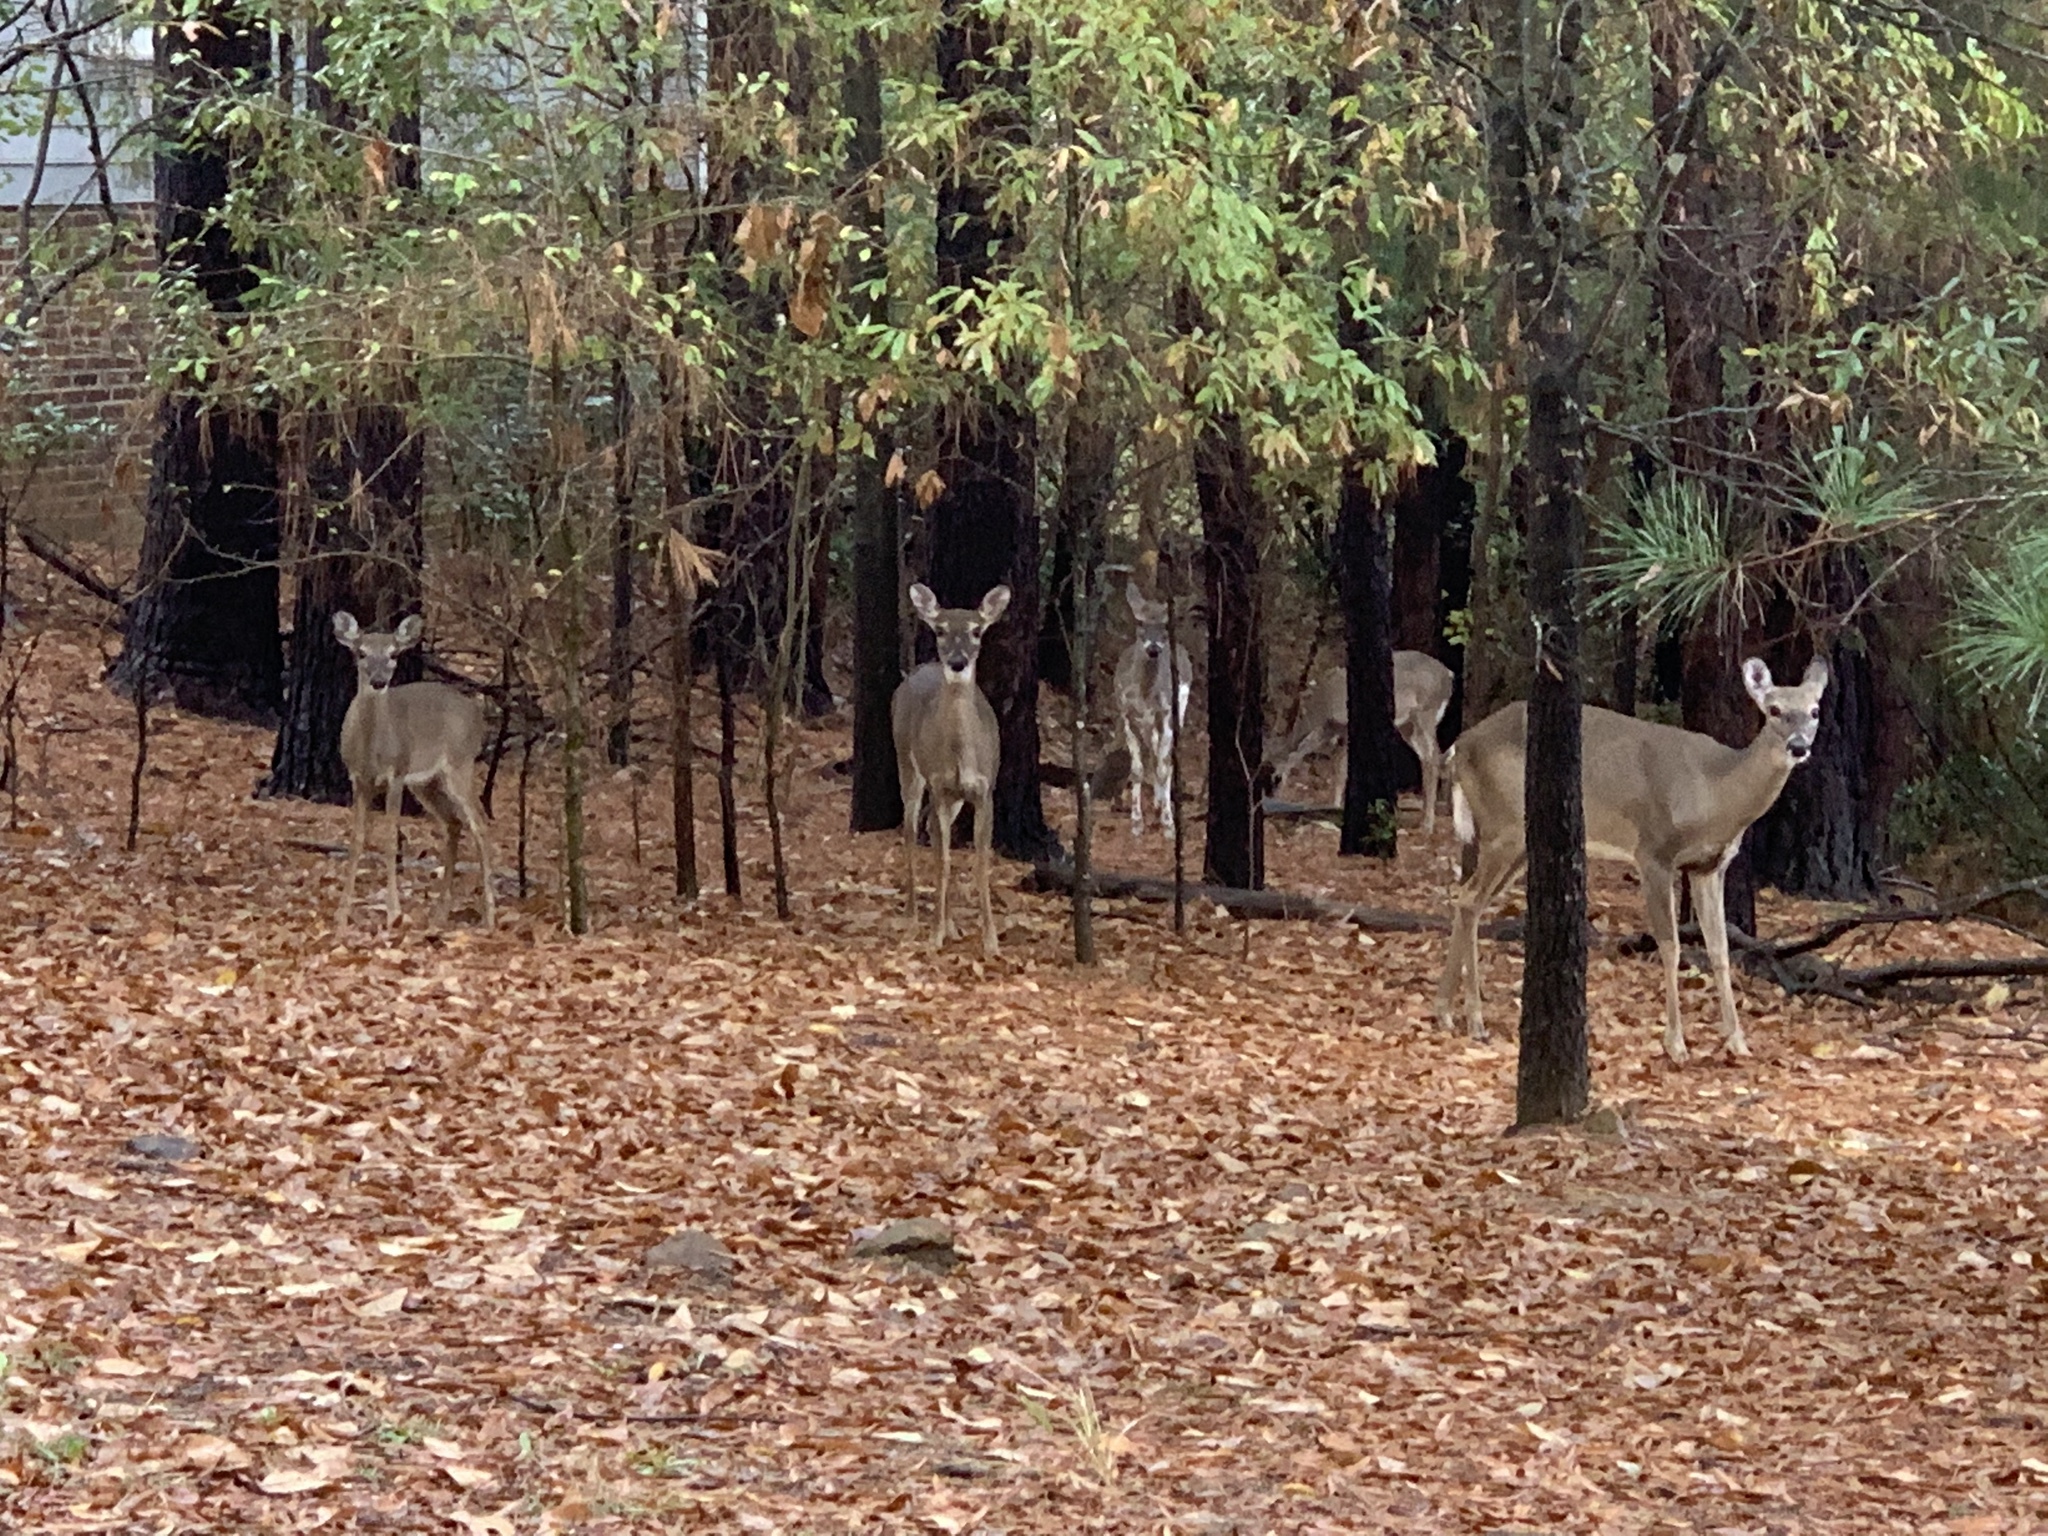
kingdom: Animalia
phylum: Chordata
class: Mammalia
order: Artiodactyla
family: Cervidae
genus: Odocoileus
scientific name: Odocoileus virginianus
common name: White-tailed deer
